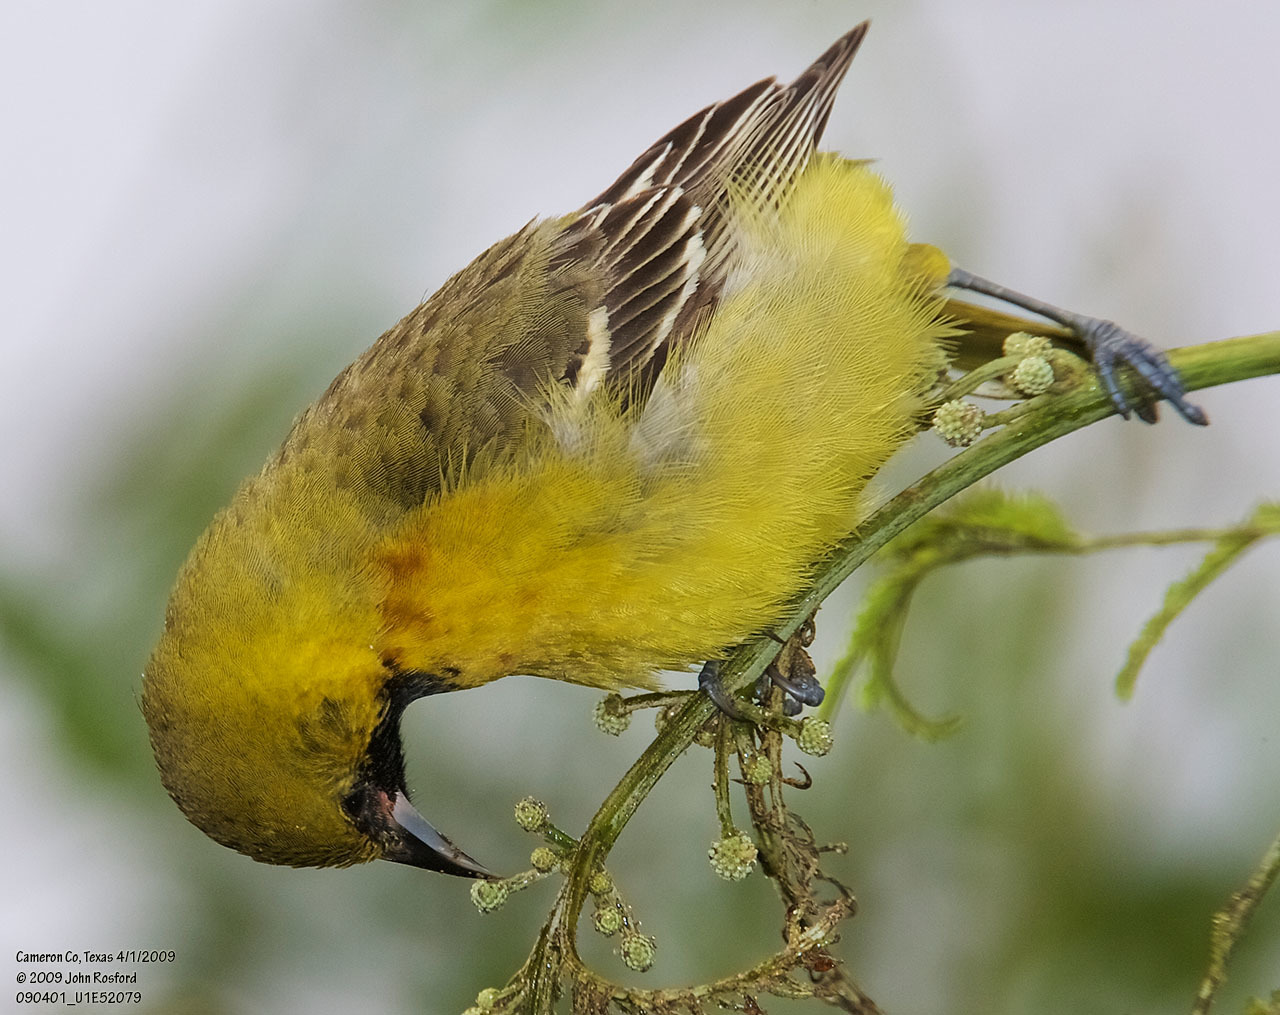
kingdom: Animalia
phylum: Chordata
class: Aves
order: Passeriformes
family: Icteridae
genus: Icterus
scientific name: Icterus spurius
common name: Orchard oriole
